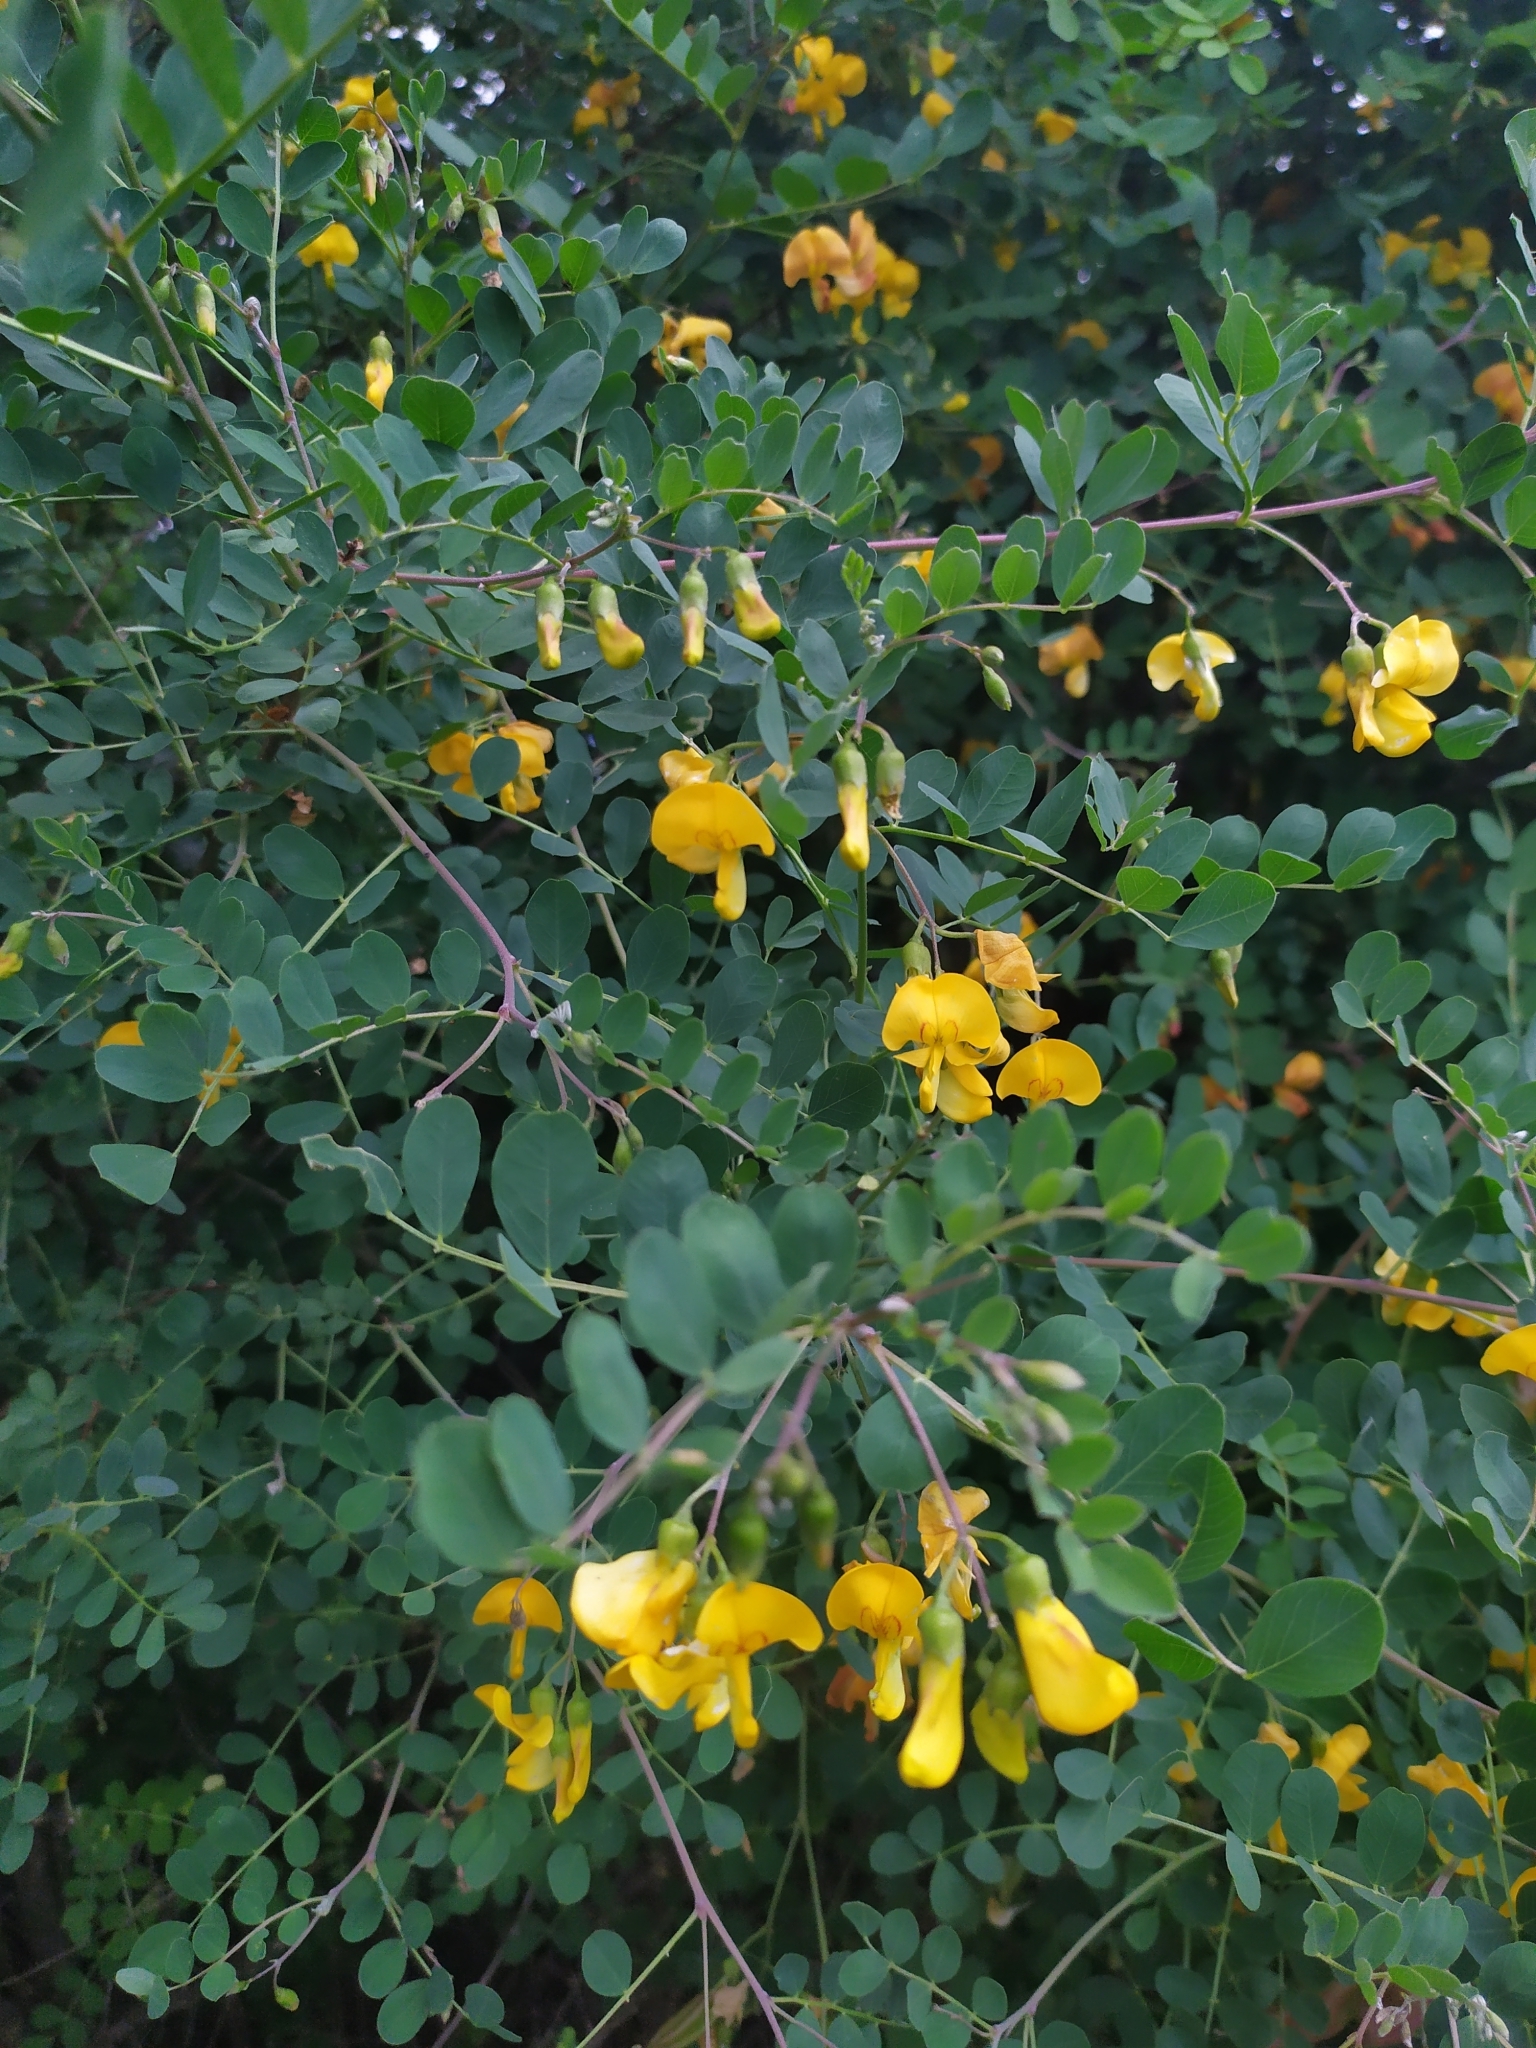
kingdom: Plantae
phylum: Tracheophyta
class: Magnoliopsida
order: Fabales
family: Fabaceae
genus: Colutea
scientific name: Colutea arborescens
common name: Bladder-senna
